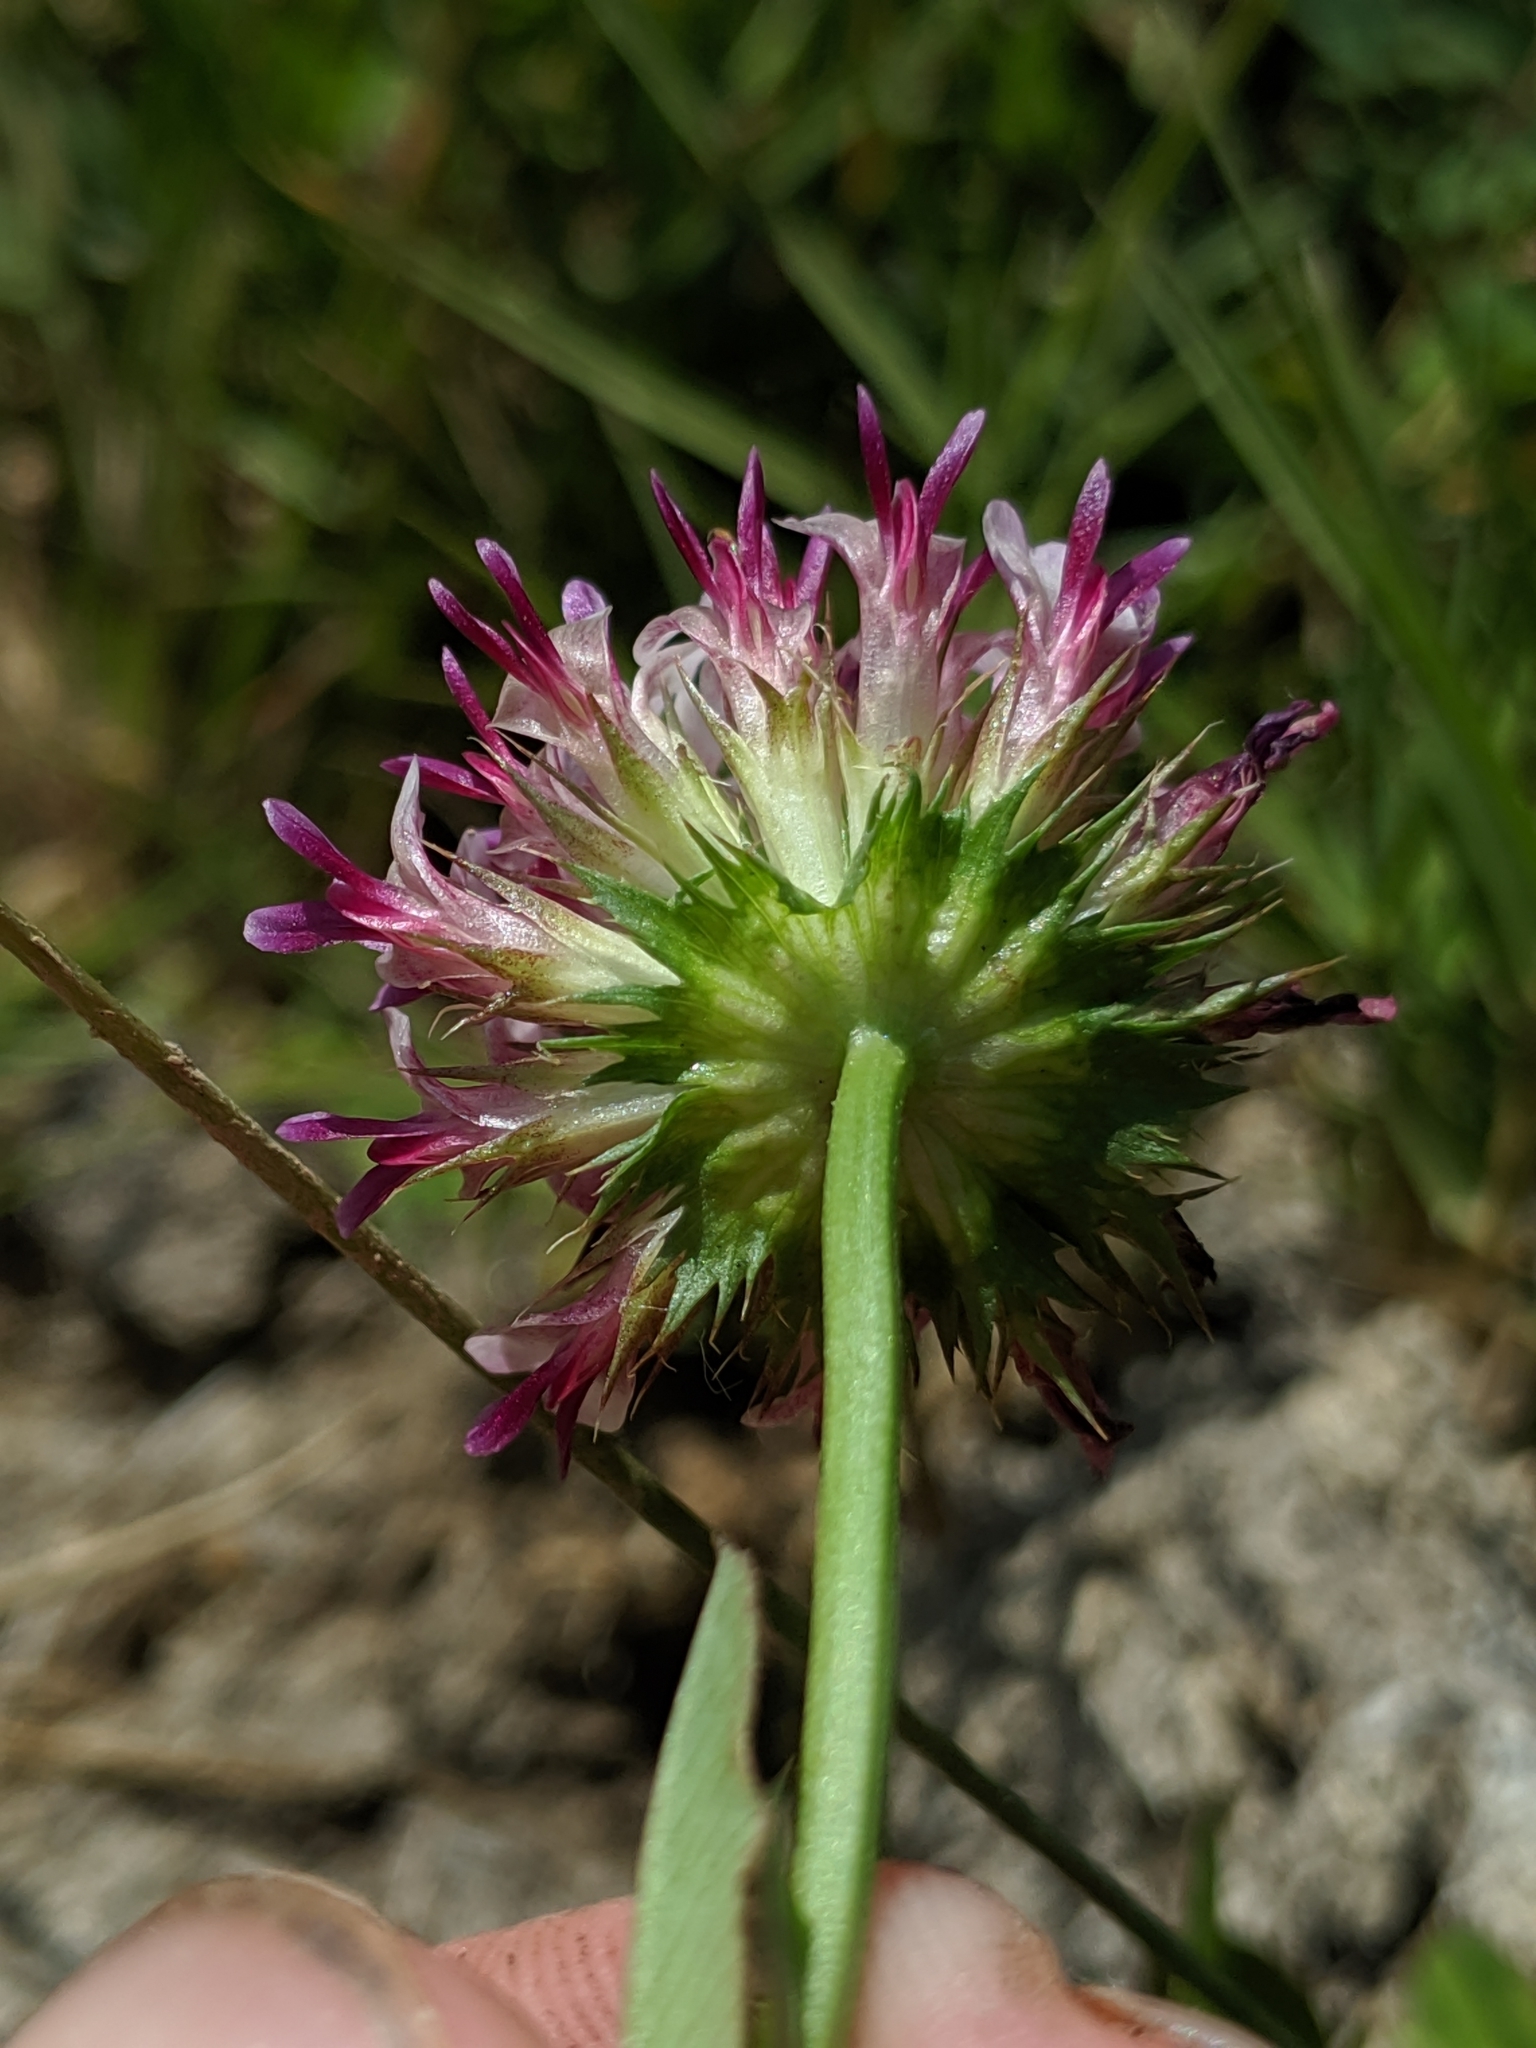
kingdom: Plantae
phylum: Tracheophyta
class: Magnoliopsida
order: Fabales
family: Fabaceae
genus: Trifolium
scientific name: Trifolium wormskioldii
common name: Springbank clover
